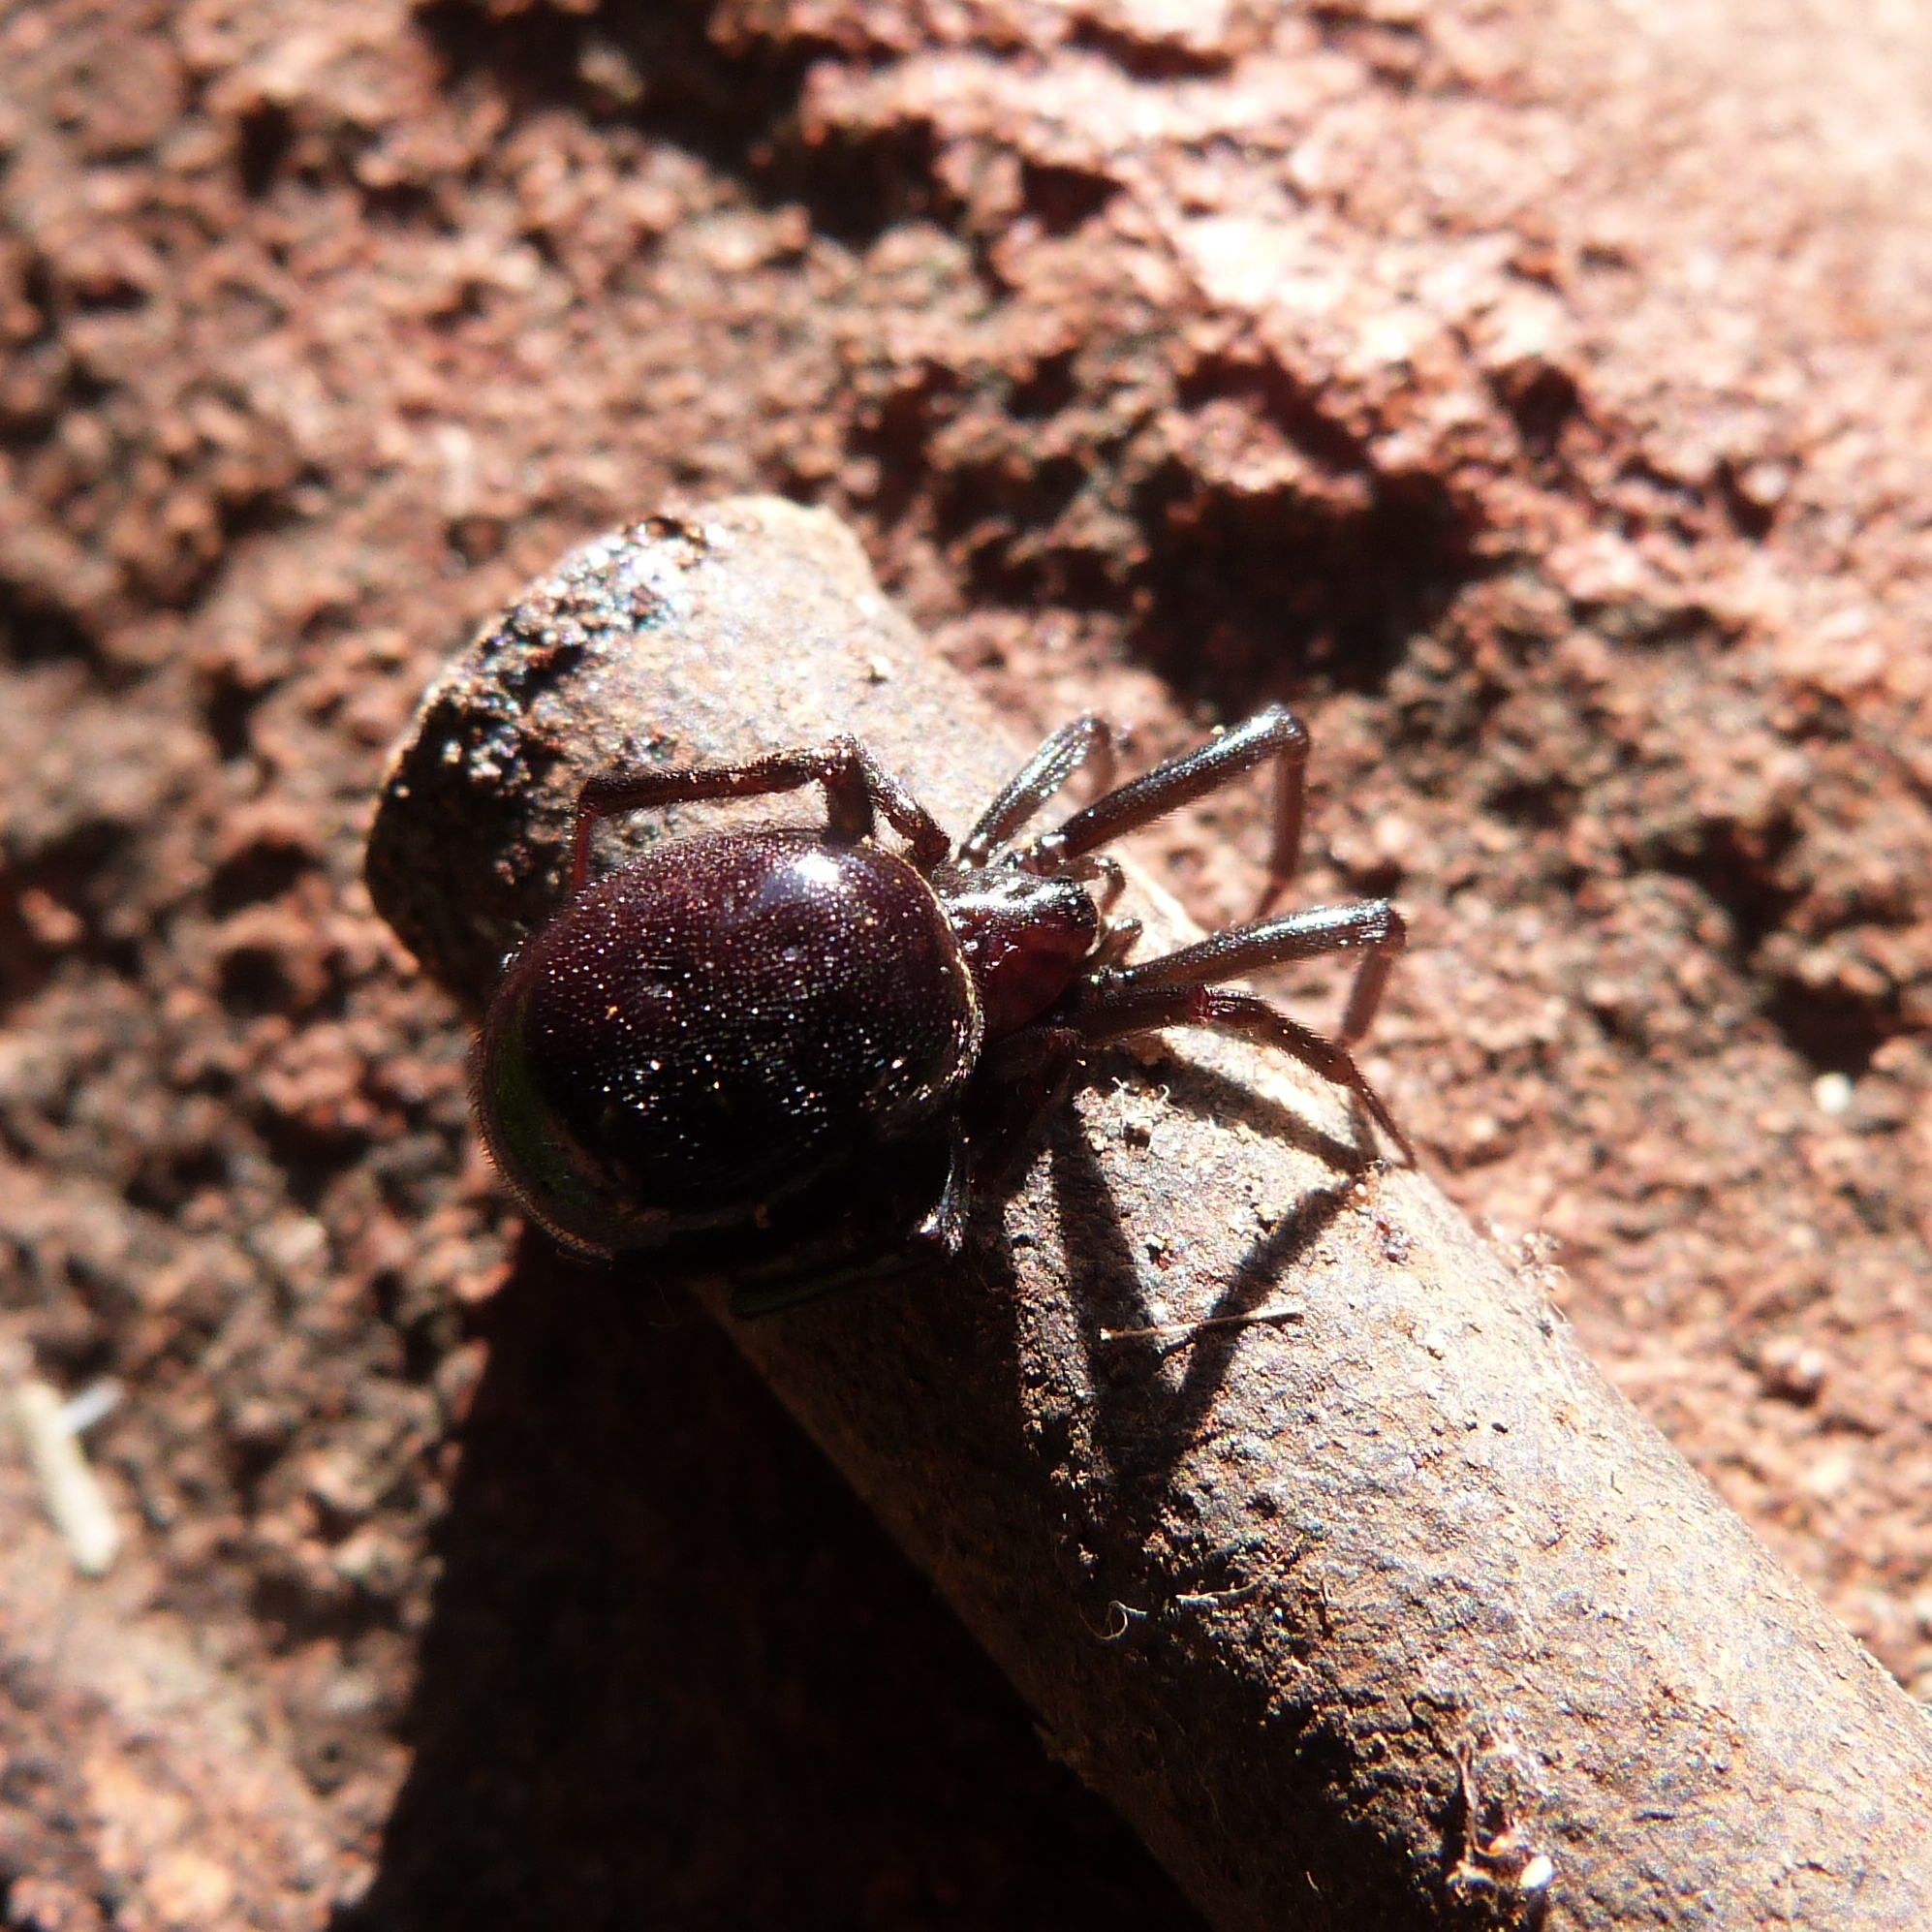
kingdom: Animalia
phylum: Arthropoda
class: Arachnida
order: Araneae
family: Theridiidae
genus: Steatoda
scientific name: Steatoda capensis
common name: Cobweb weaver
